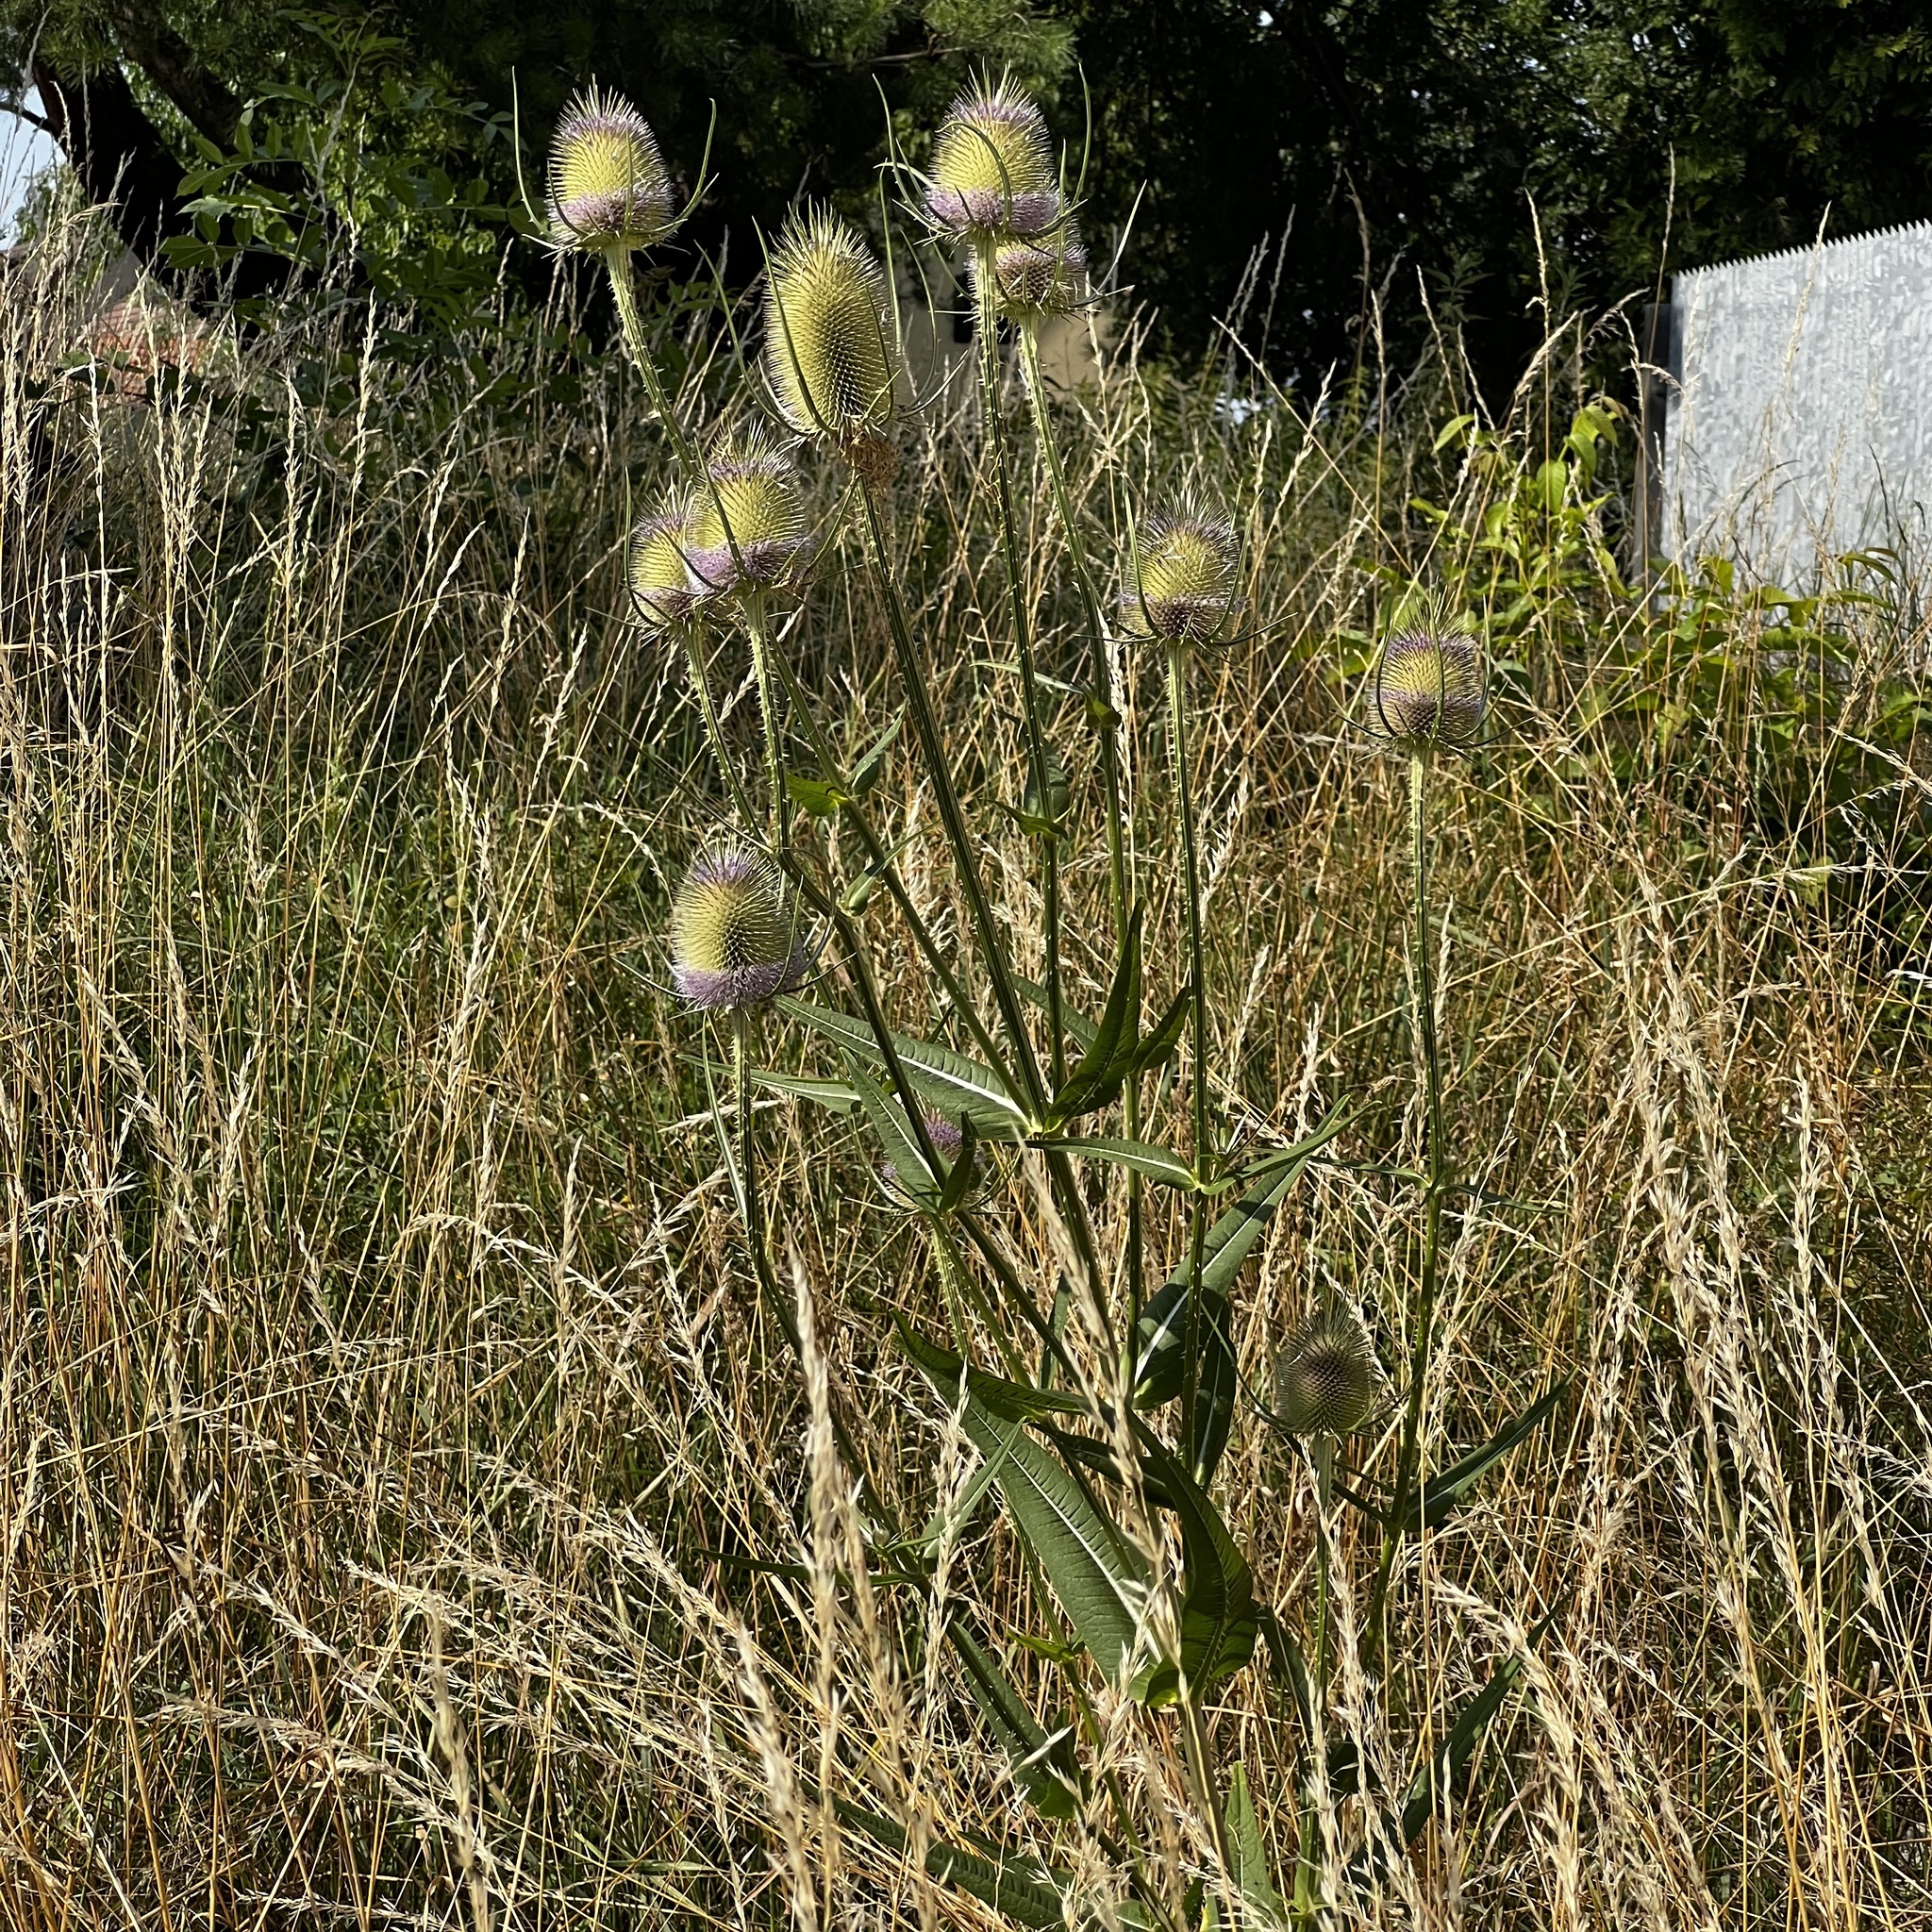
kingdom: Plantae
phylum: Tracheophyta
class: Magnoliopsida
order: Dipsacales
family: Caprifoliaceae
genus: Dipsacus
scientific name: Dipsacus fullonum
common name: Teasel
